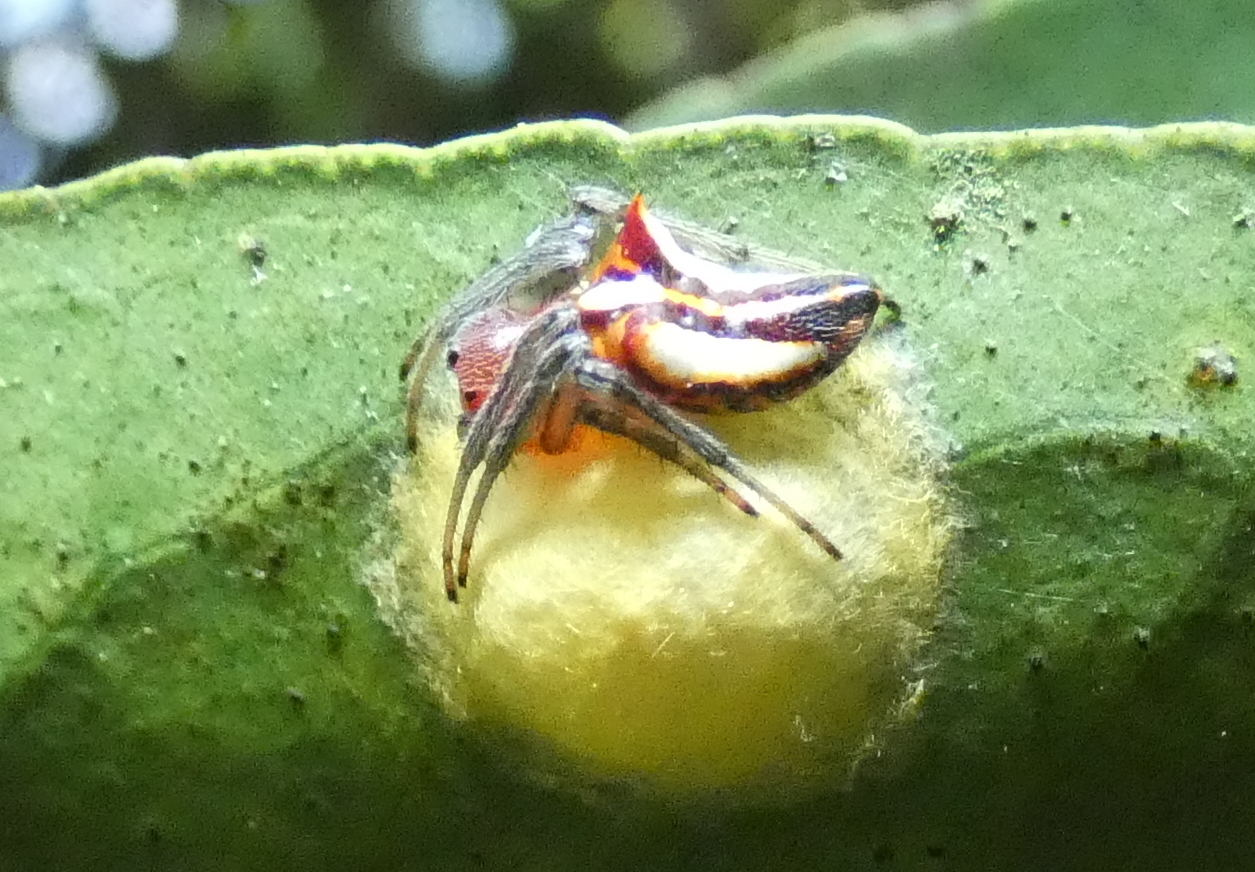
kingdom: Animalia
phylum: Arthropoda
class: Arachnida
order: Araneae
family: Araneidae
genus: Alpaida
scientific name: Alpaida bicornuta
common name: Orb weavers
